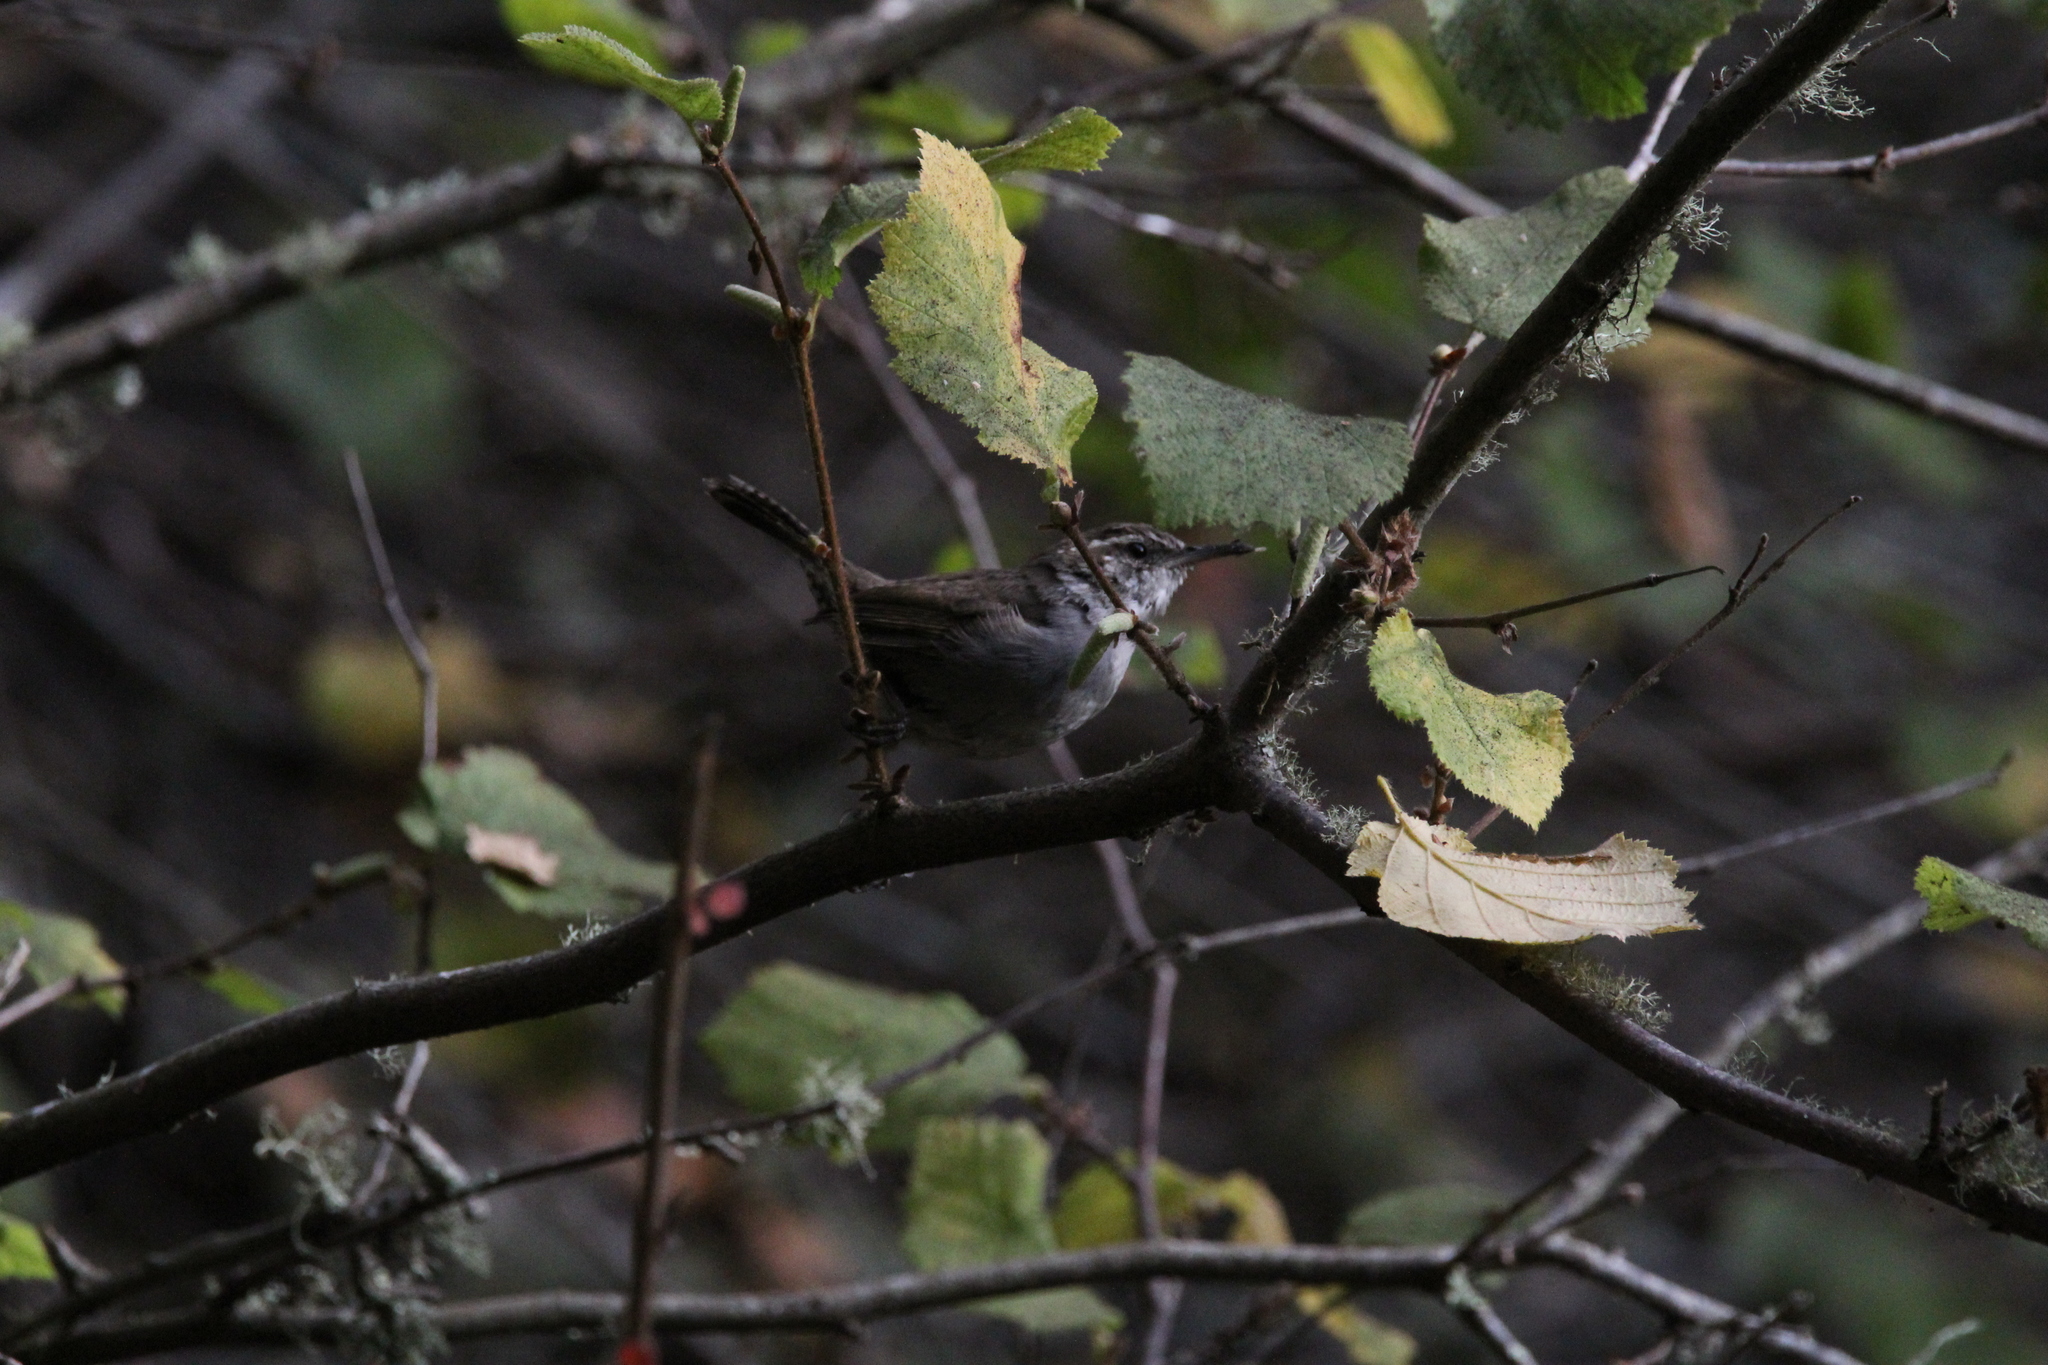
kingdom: Animalia
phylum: Chordata
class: Aves
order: Passeriformes
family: Troglodytidae
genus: Thryomanes
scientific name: Thryomanes bewickii
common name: Bewick's wren
